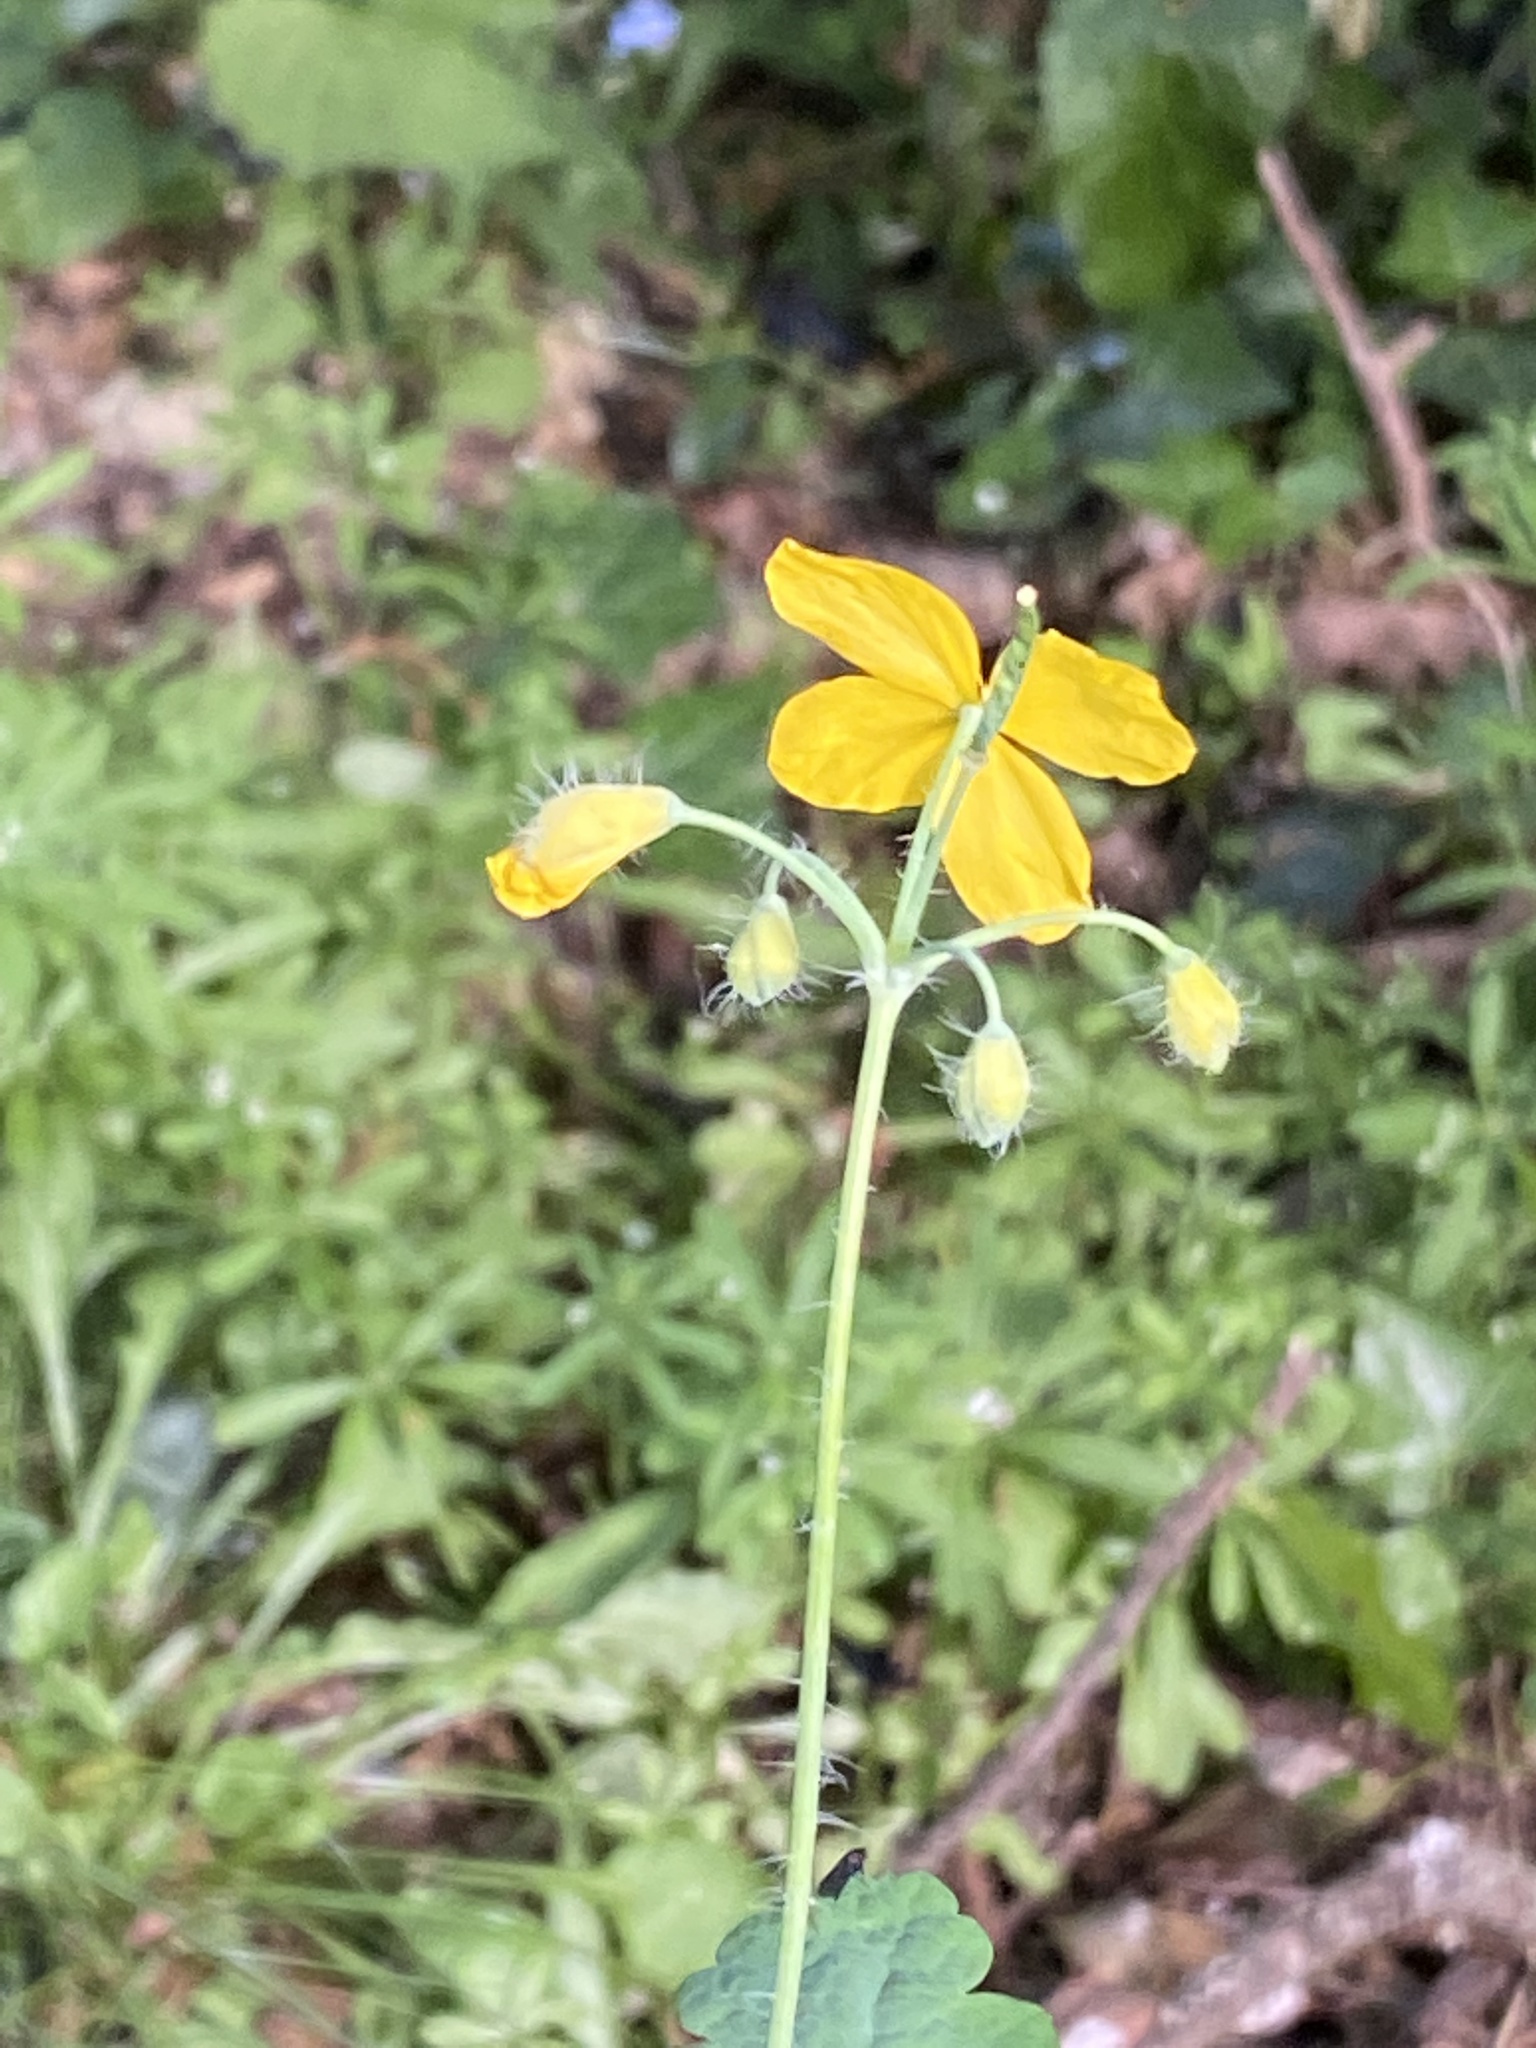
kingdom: Plantae
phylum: Tracheophyta
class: Magnoliopsida
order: Ranunculales
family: Papaveraceae
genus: Chelidonium
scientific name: Chelidonium majus
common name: Greater celandine
